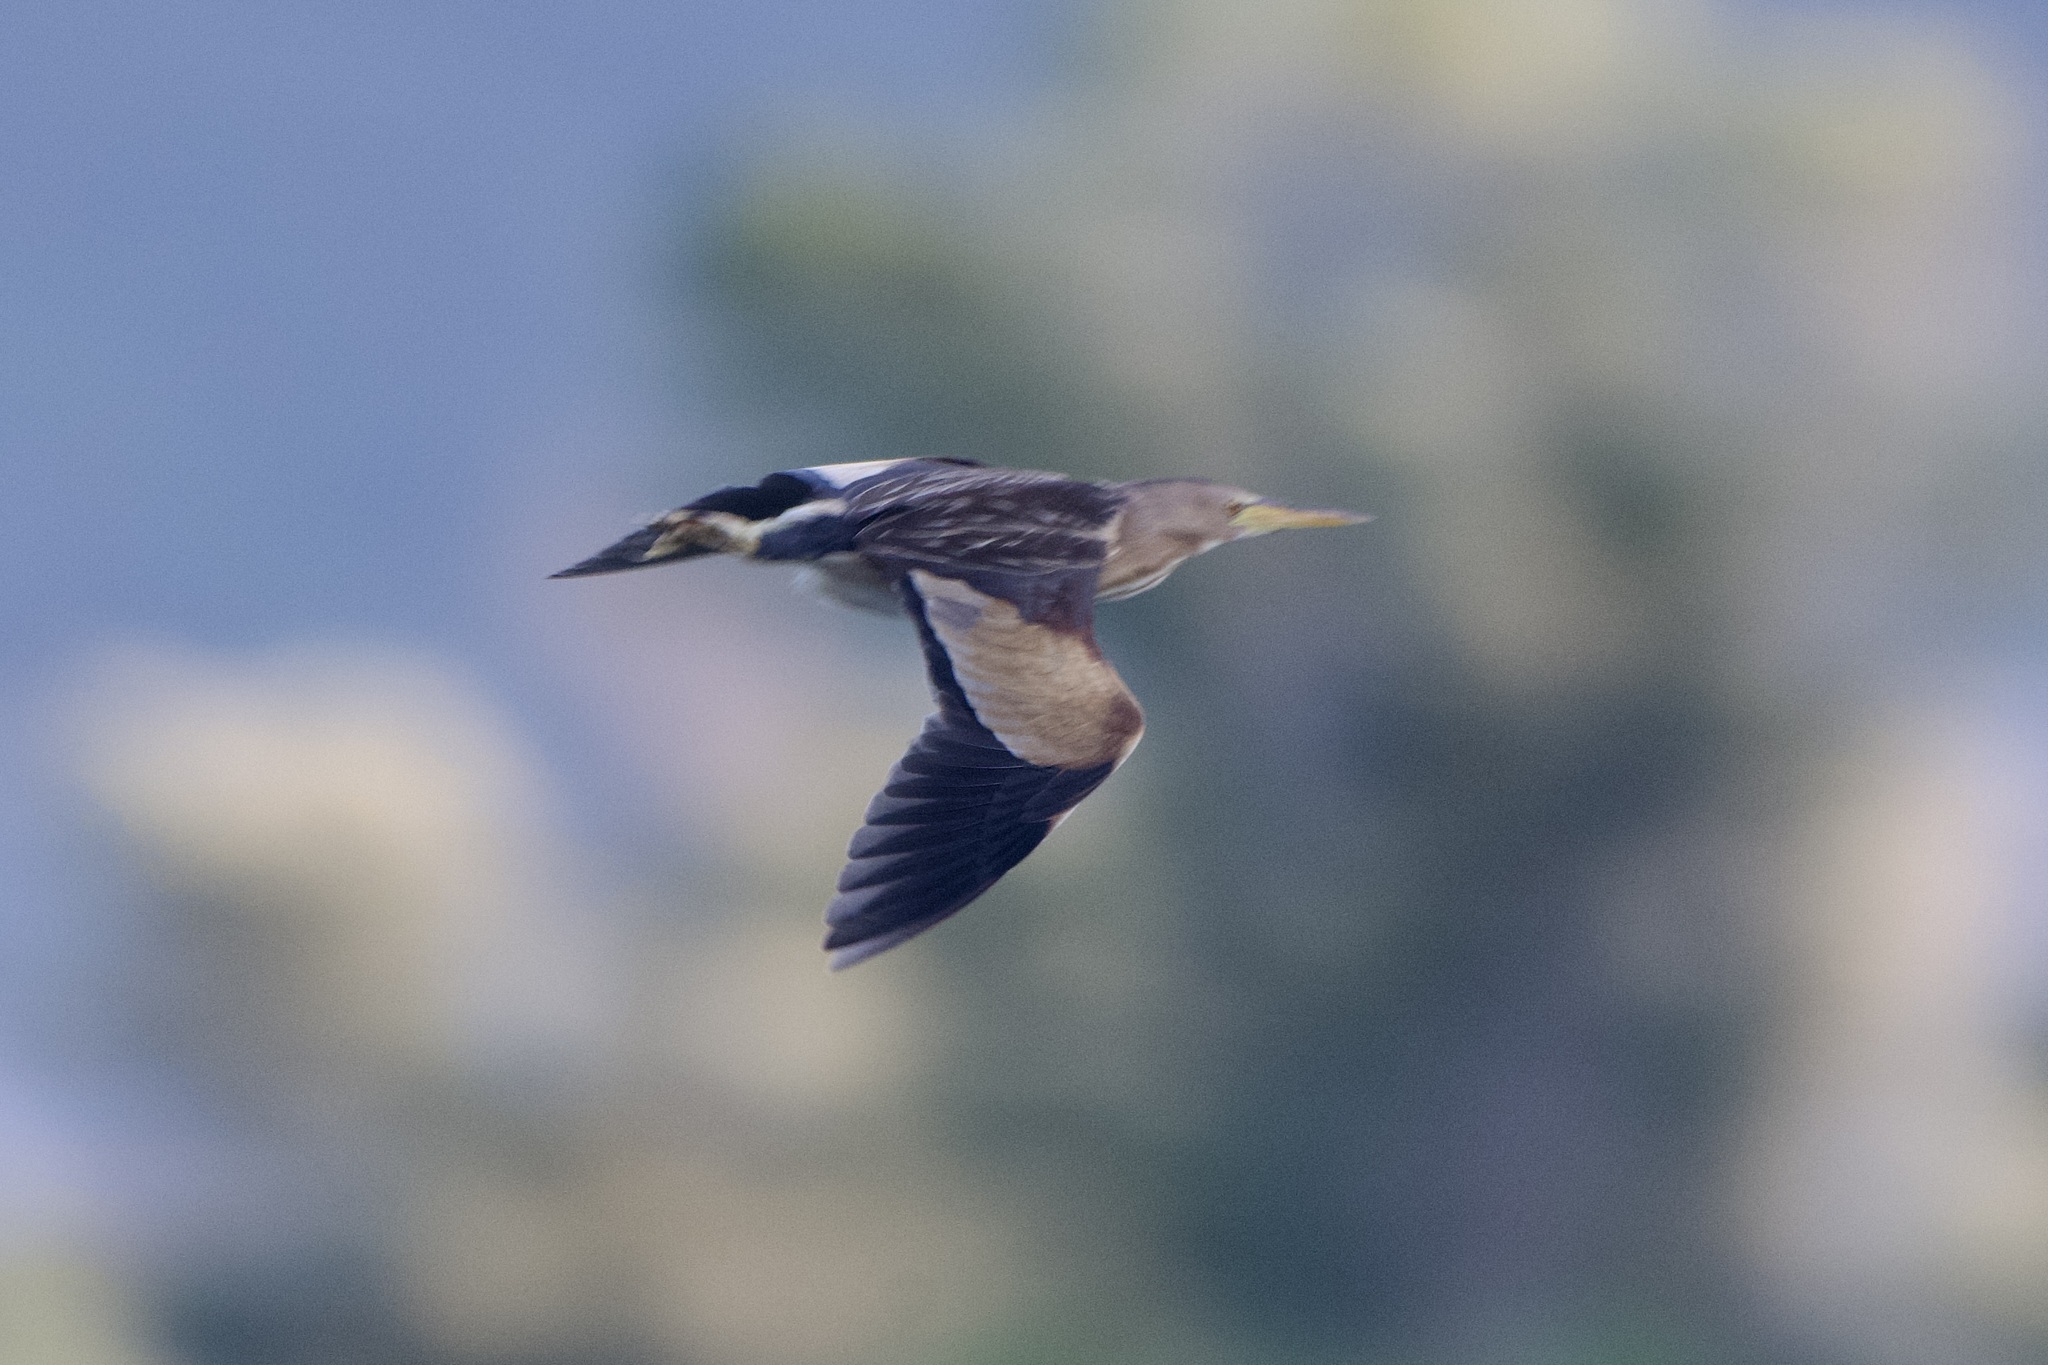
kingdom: Animalia
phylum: Chordata
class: Aves
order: Pelecaniformes
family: Ardeidae
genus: Ixobrychus
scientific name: Ixobrychus minutus
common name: Little bittern
